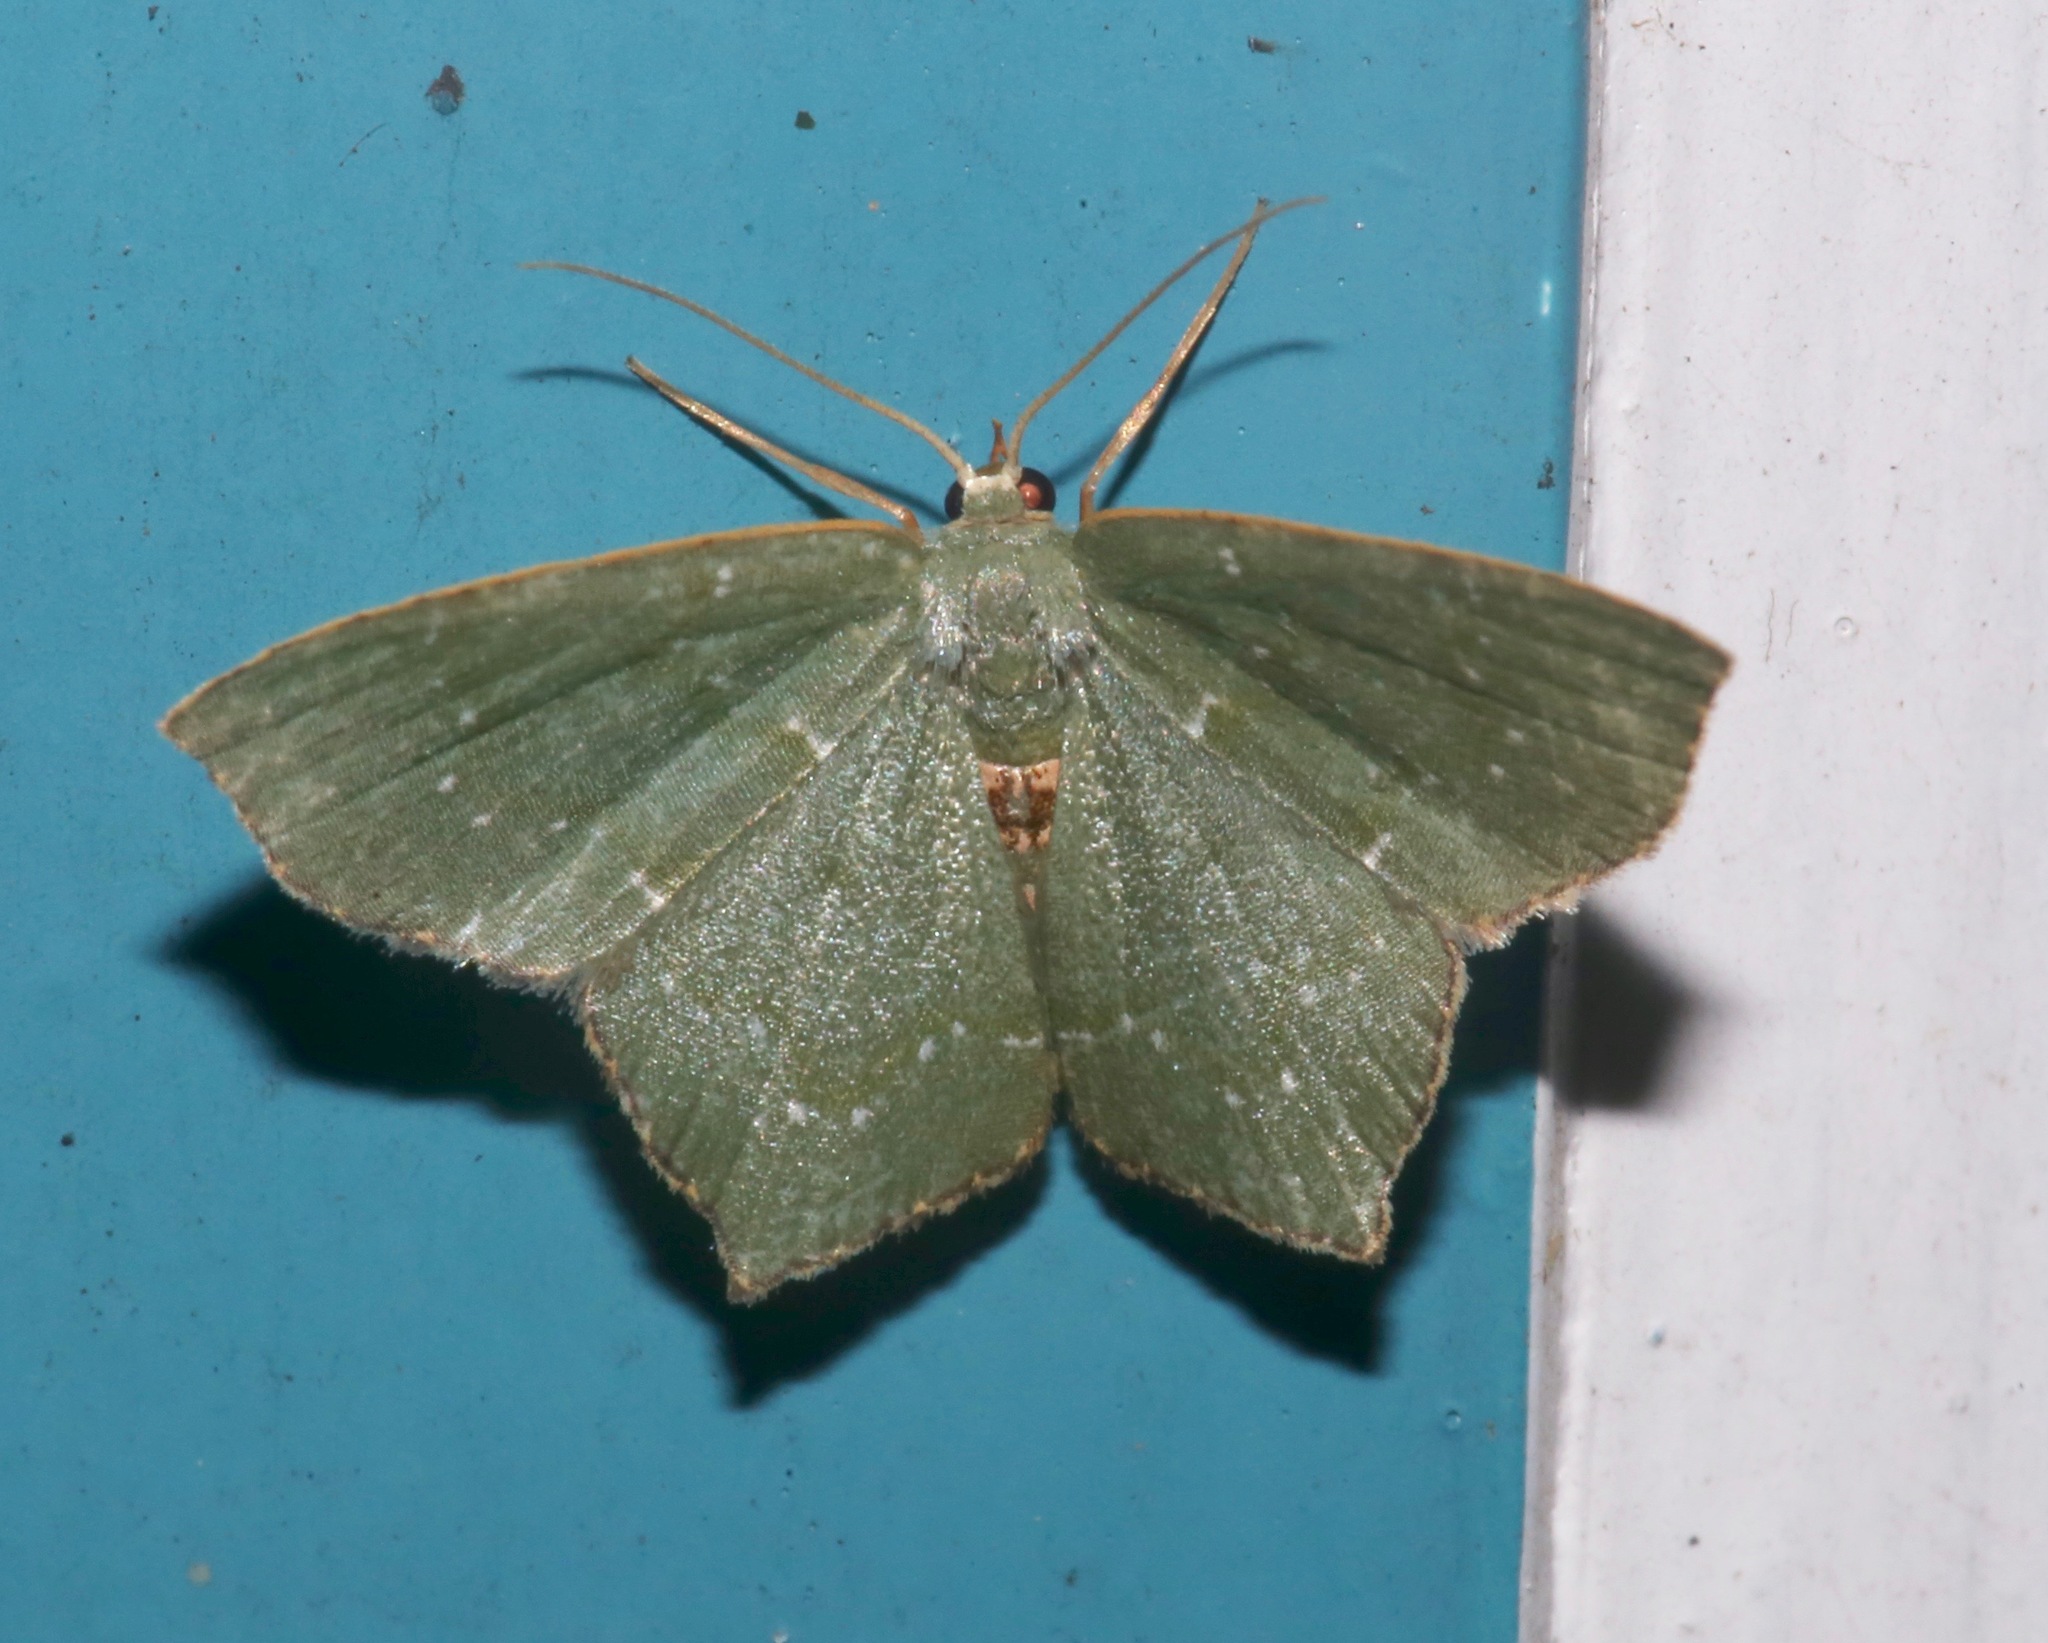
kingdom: Animalia
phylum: Arthropoda
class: Insecta
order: Lepidoptera
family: Geometridae
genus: Chloropteryx
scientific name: Chloropteryx tepperaria
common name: Angle winged emerald moth
